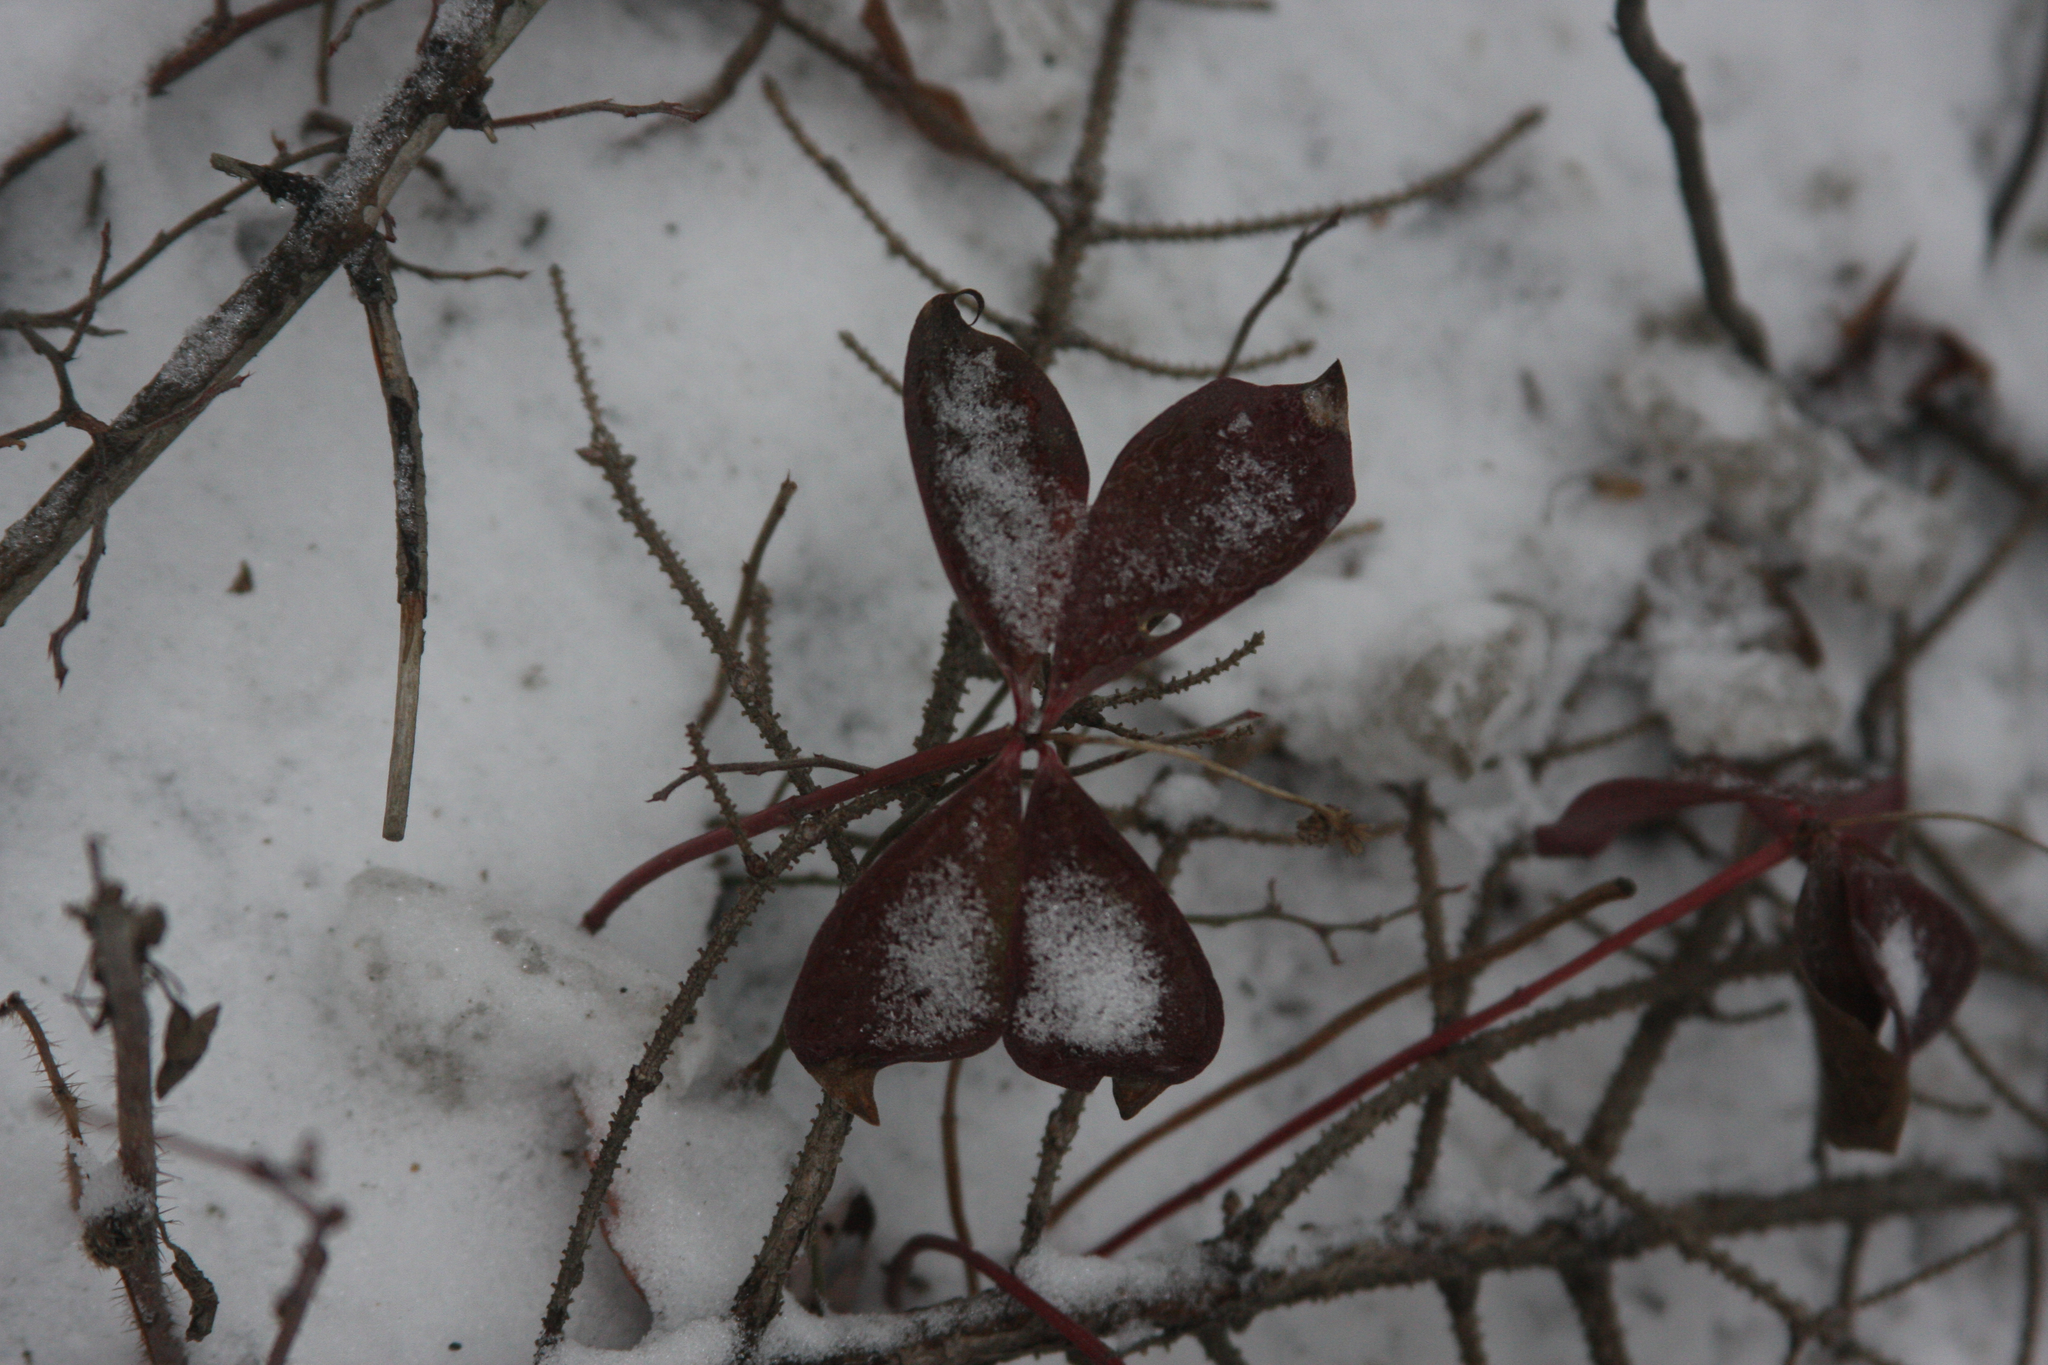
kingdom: Plantae
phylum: Tracheophyta
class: Magnoliopsida
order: Ericales
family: Ericaceae
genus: Gaultheria
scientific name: Gaultheria procumbens
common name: Checkerberry
